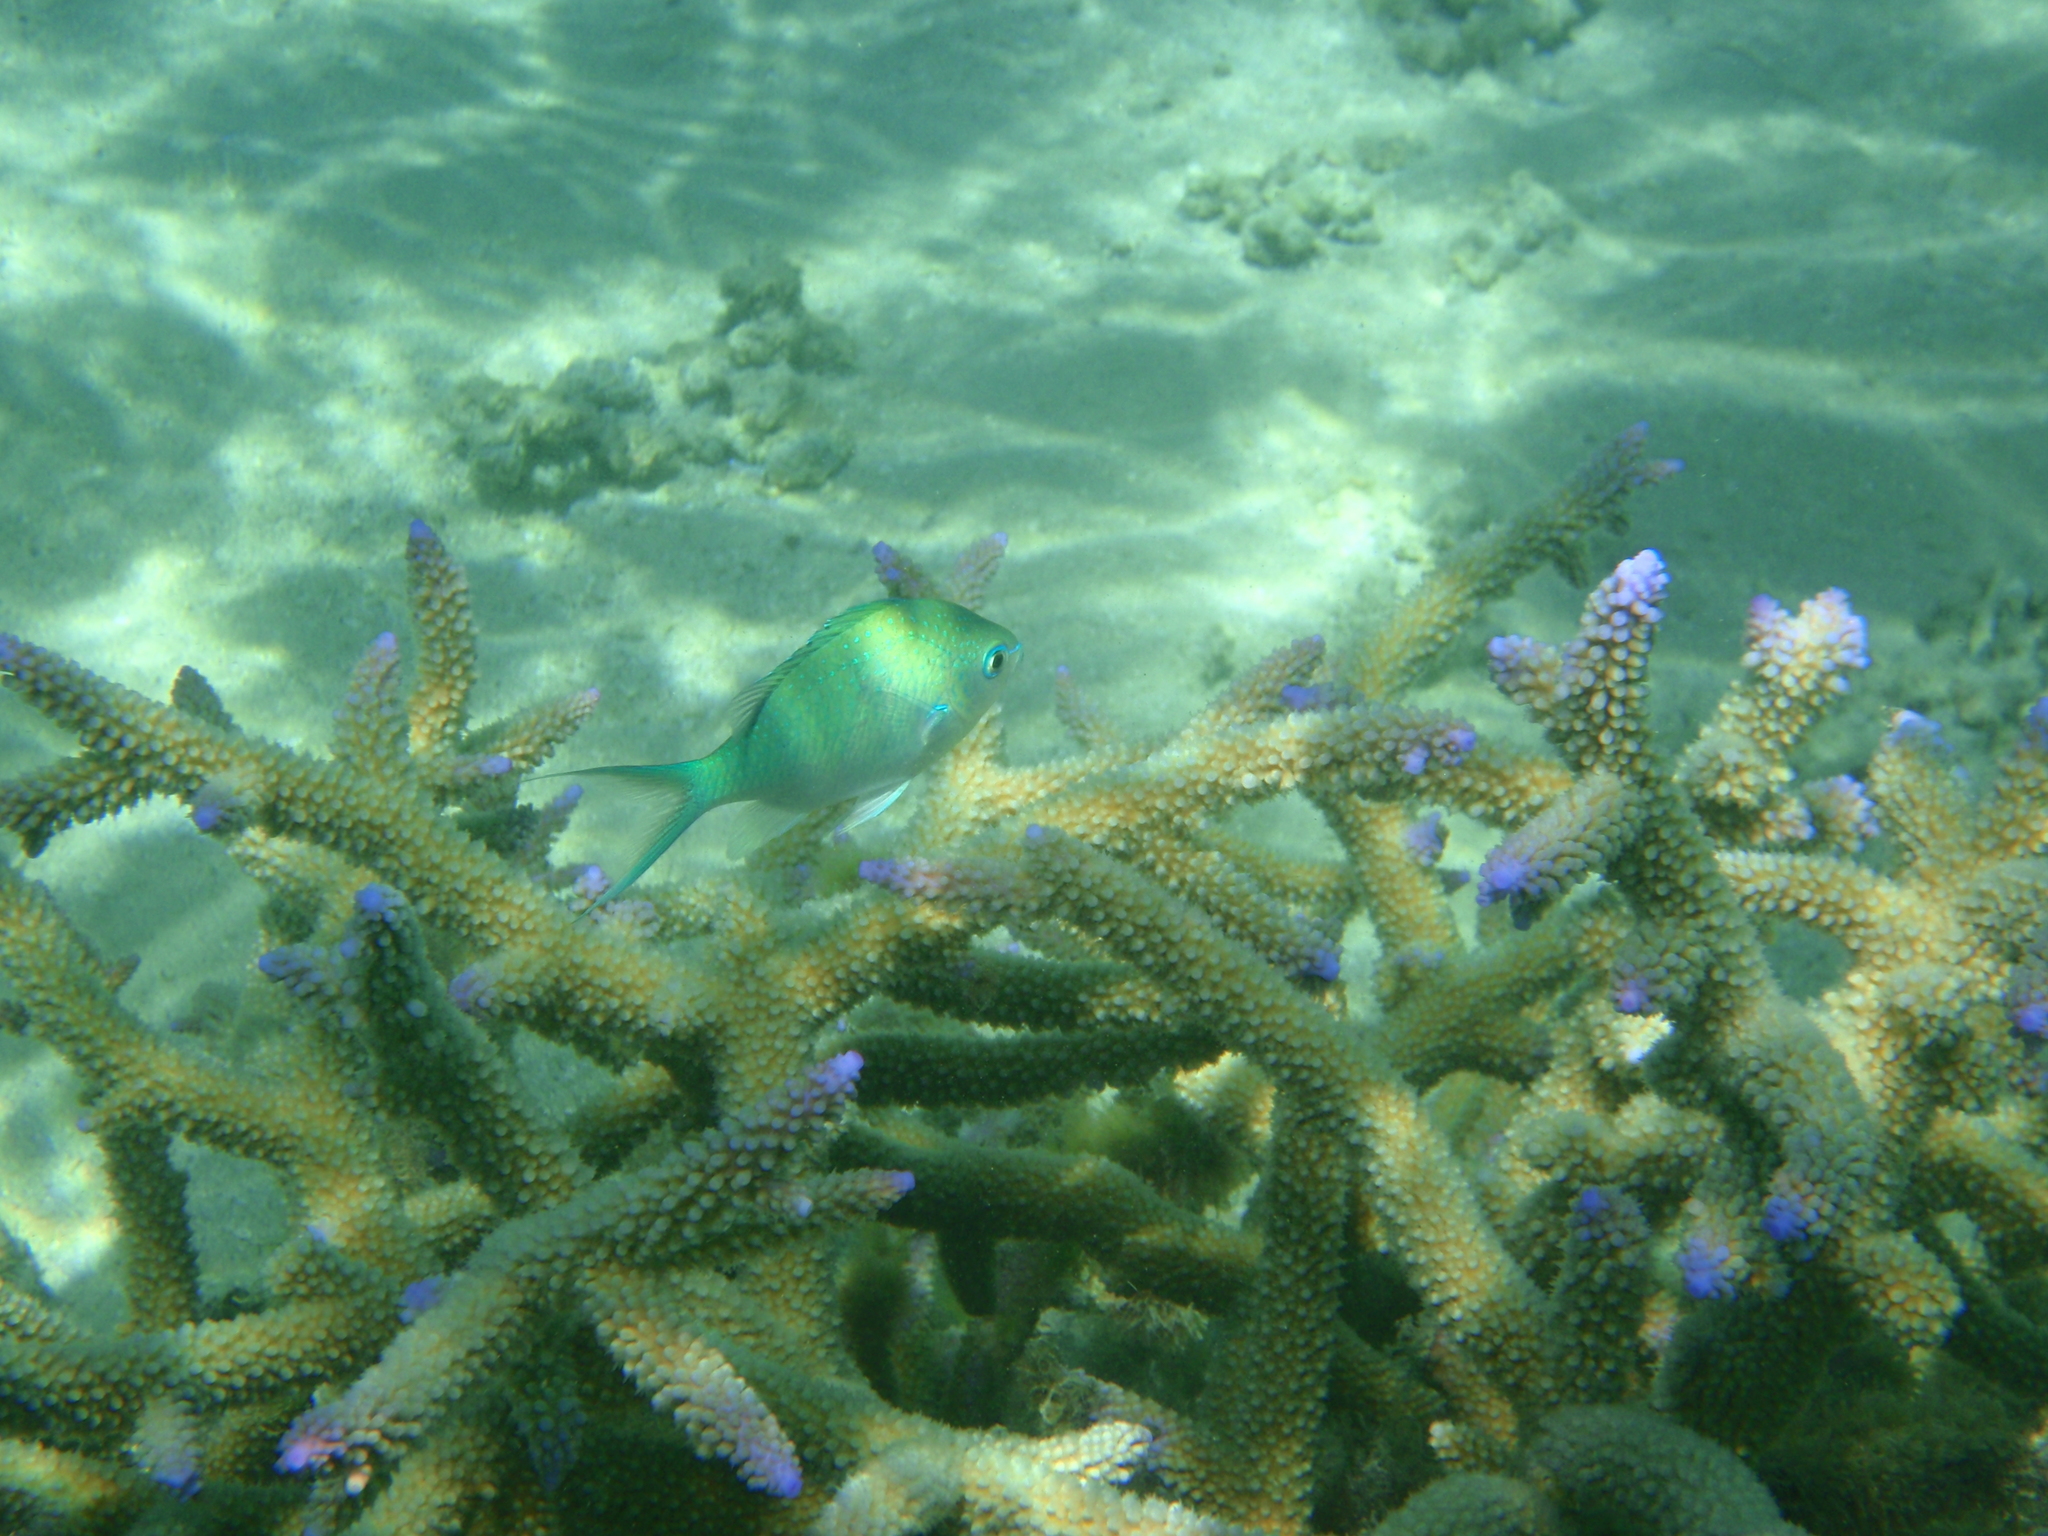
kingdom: Animalia
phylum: Chordata
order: Perciformes
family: Pomacentridae
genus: Chromis
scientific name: Chromis viridis
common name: Blue-green chromis
